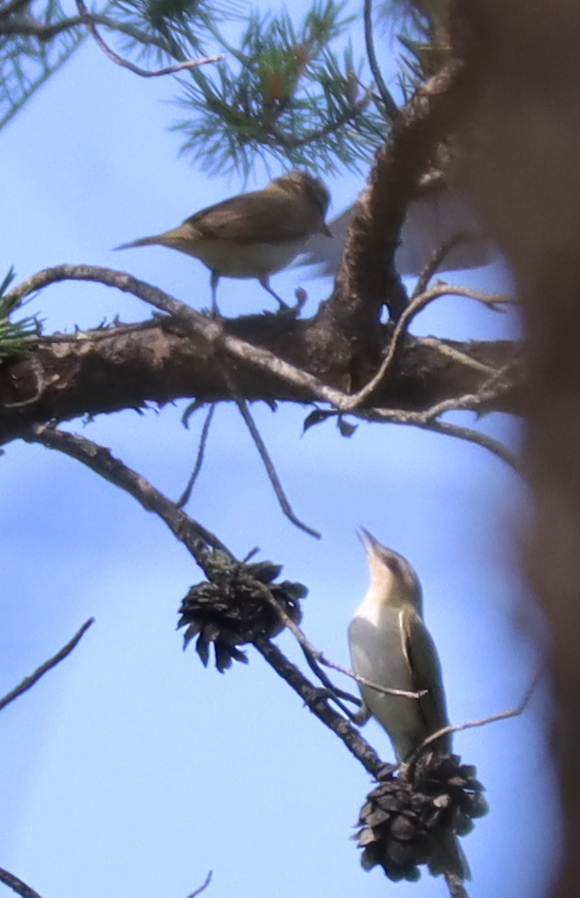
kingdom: Animalia
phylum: Chordata
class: Aves
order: Passeriformes
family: Vireonidae
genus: Vireo
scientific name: Vireo olivaceus
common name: Red-eyed vireo
